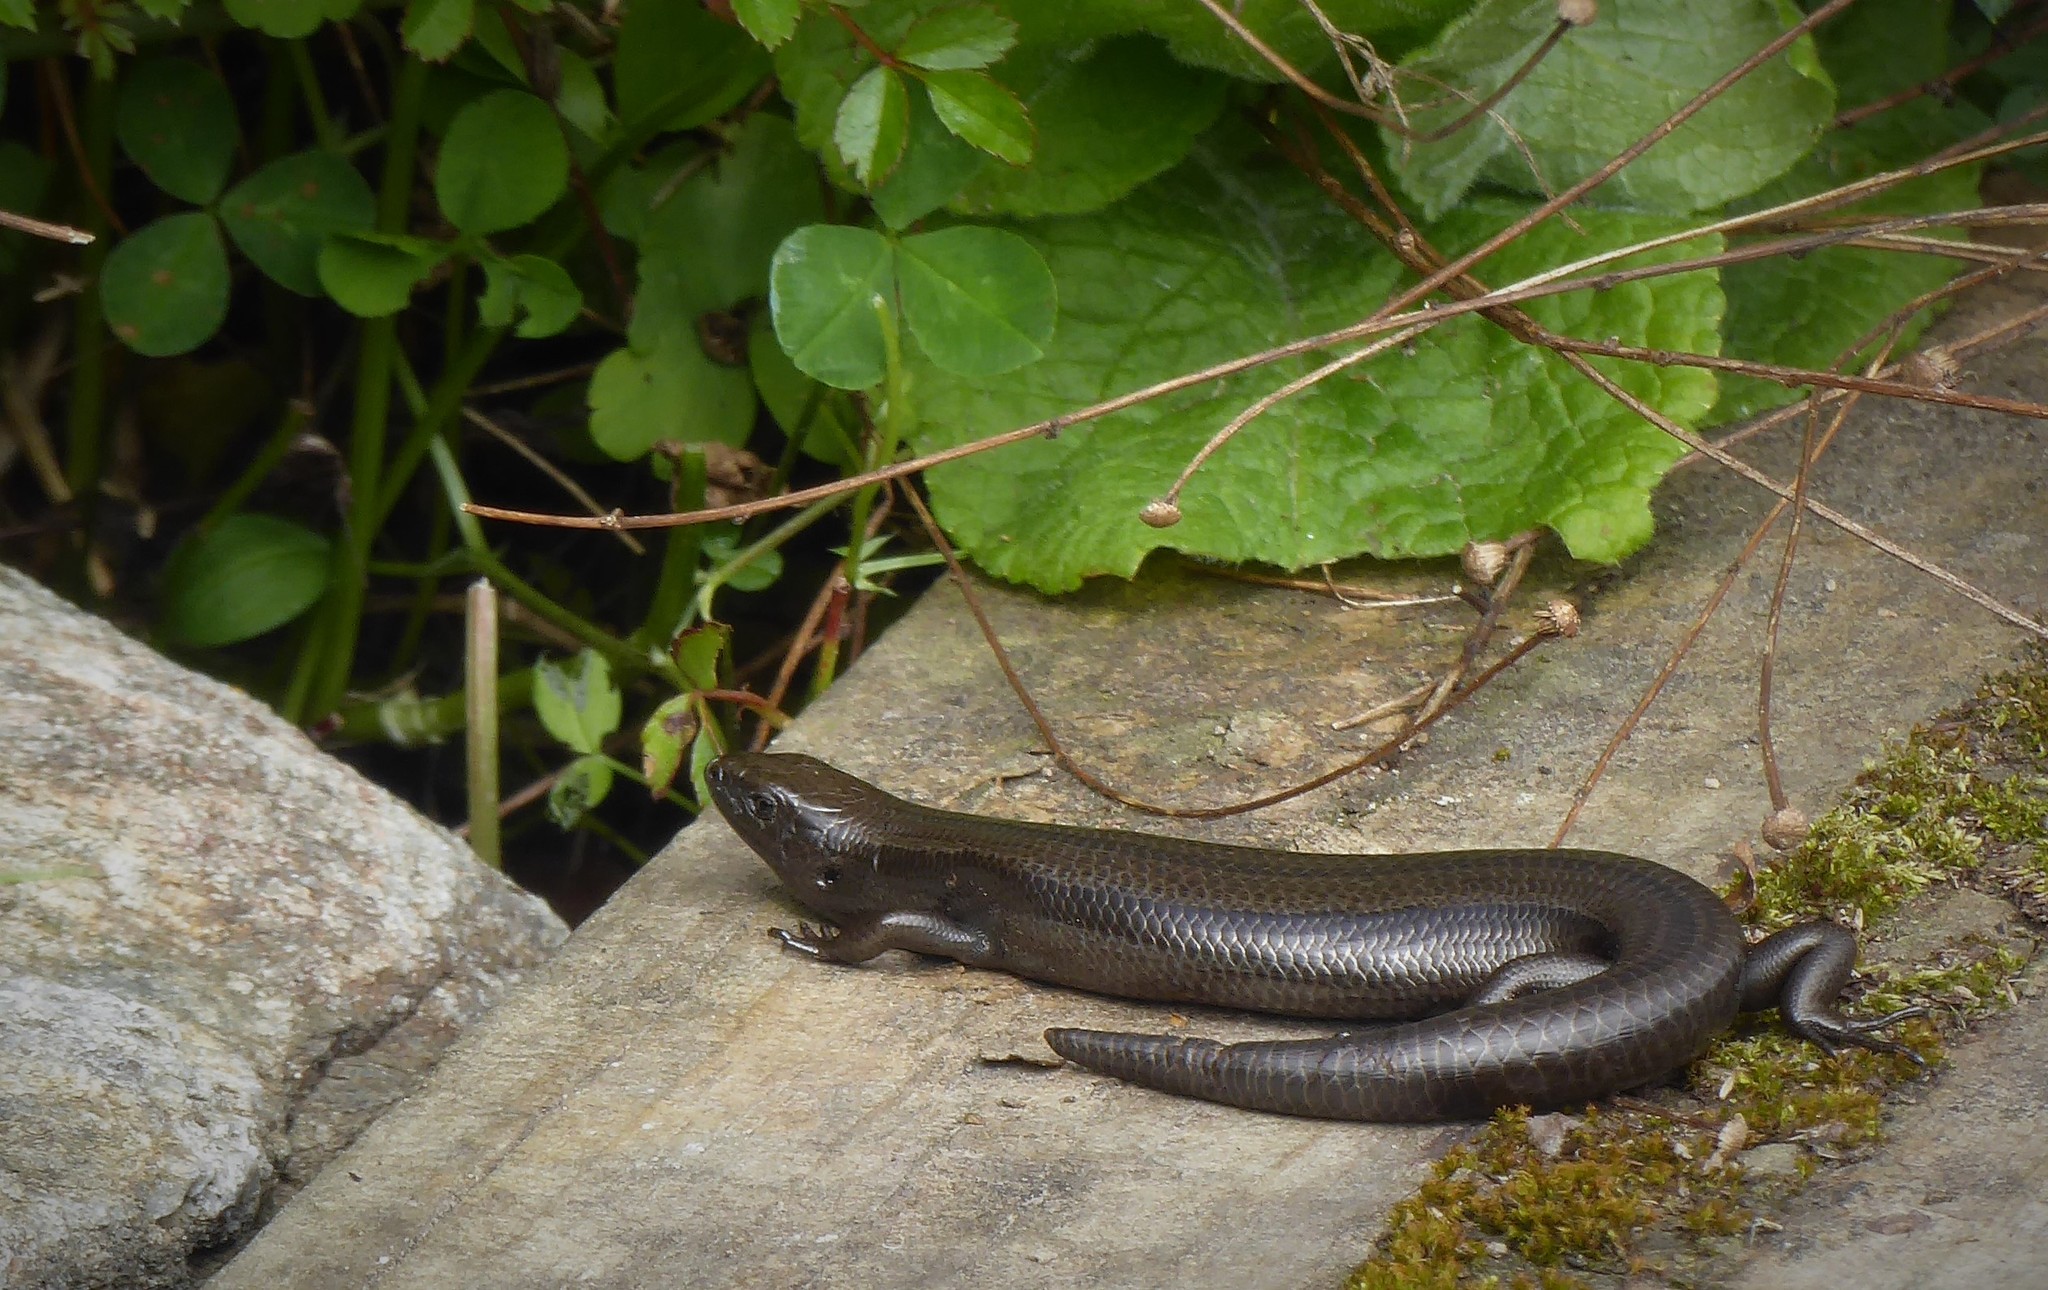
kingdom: Animalia
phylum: Chordata
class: Squamata
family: Scincidae
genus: Oligosoma
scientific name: Oligosoma polychroma
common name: Common new zealand skink
